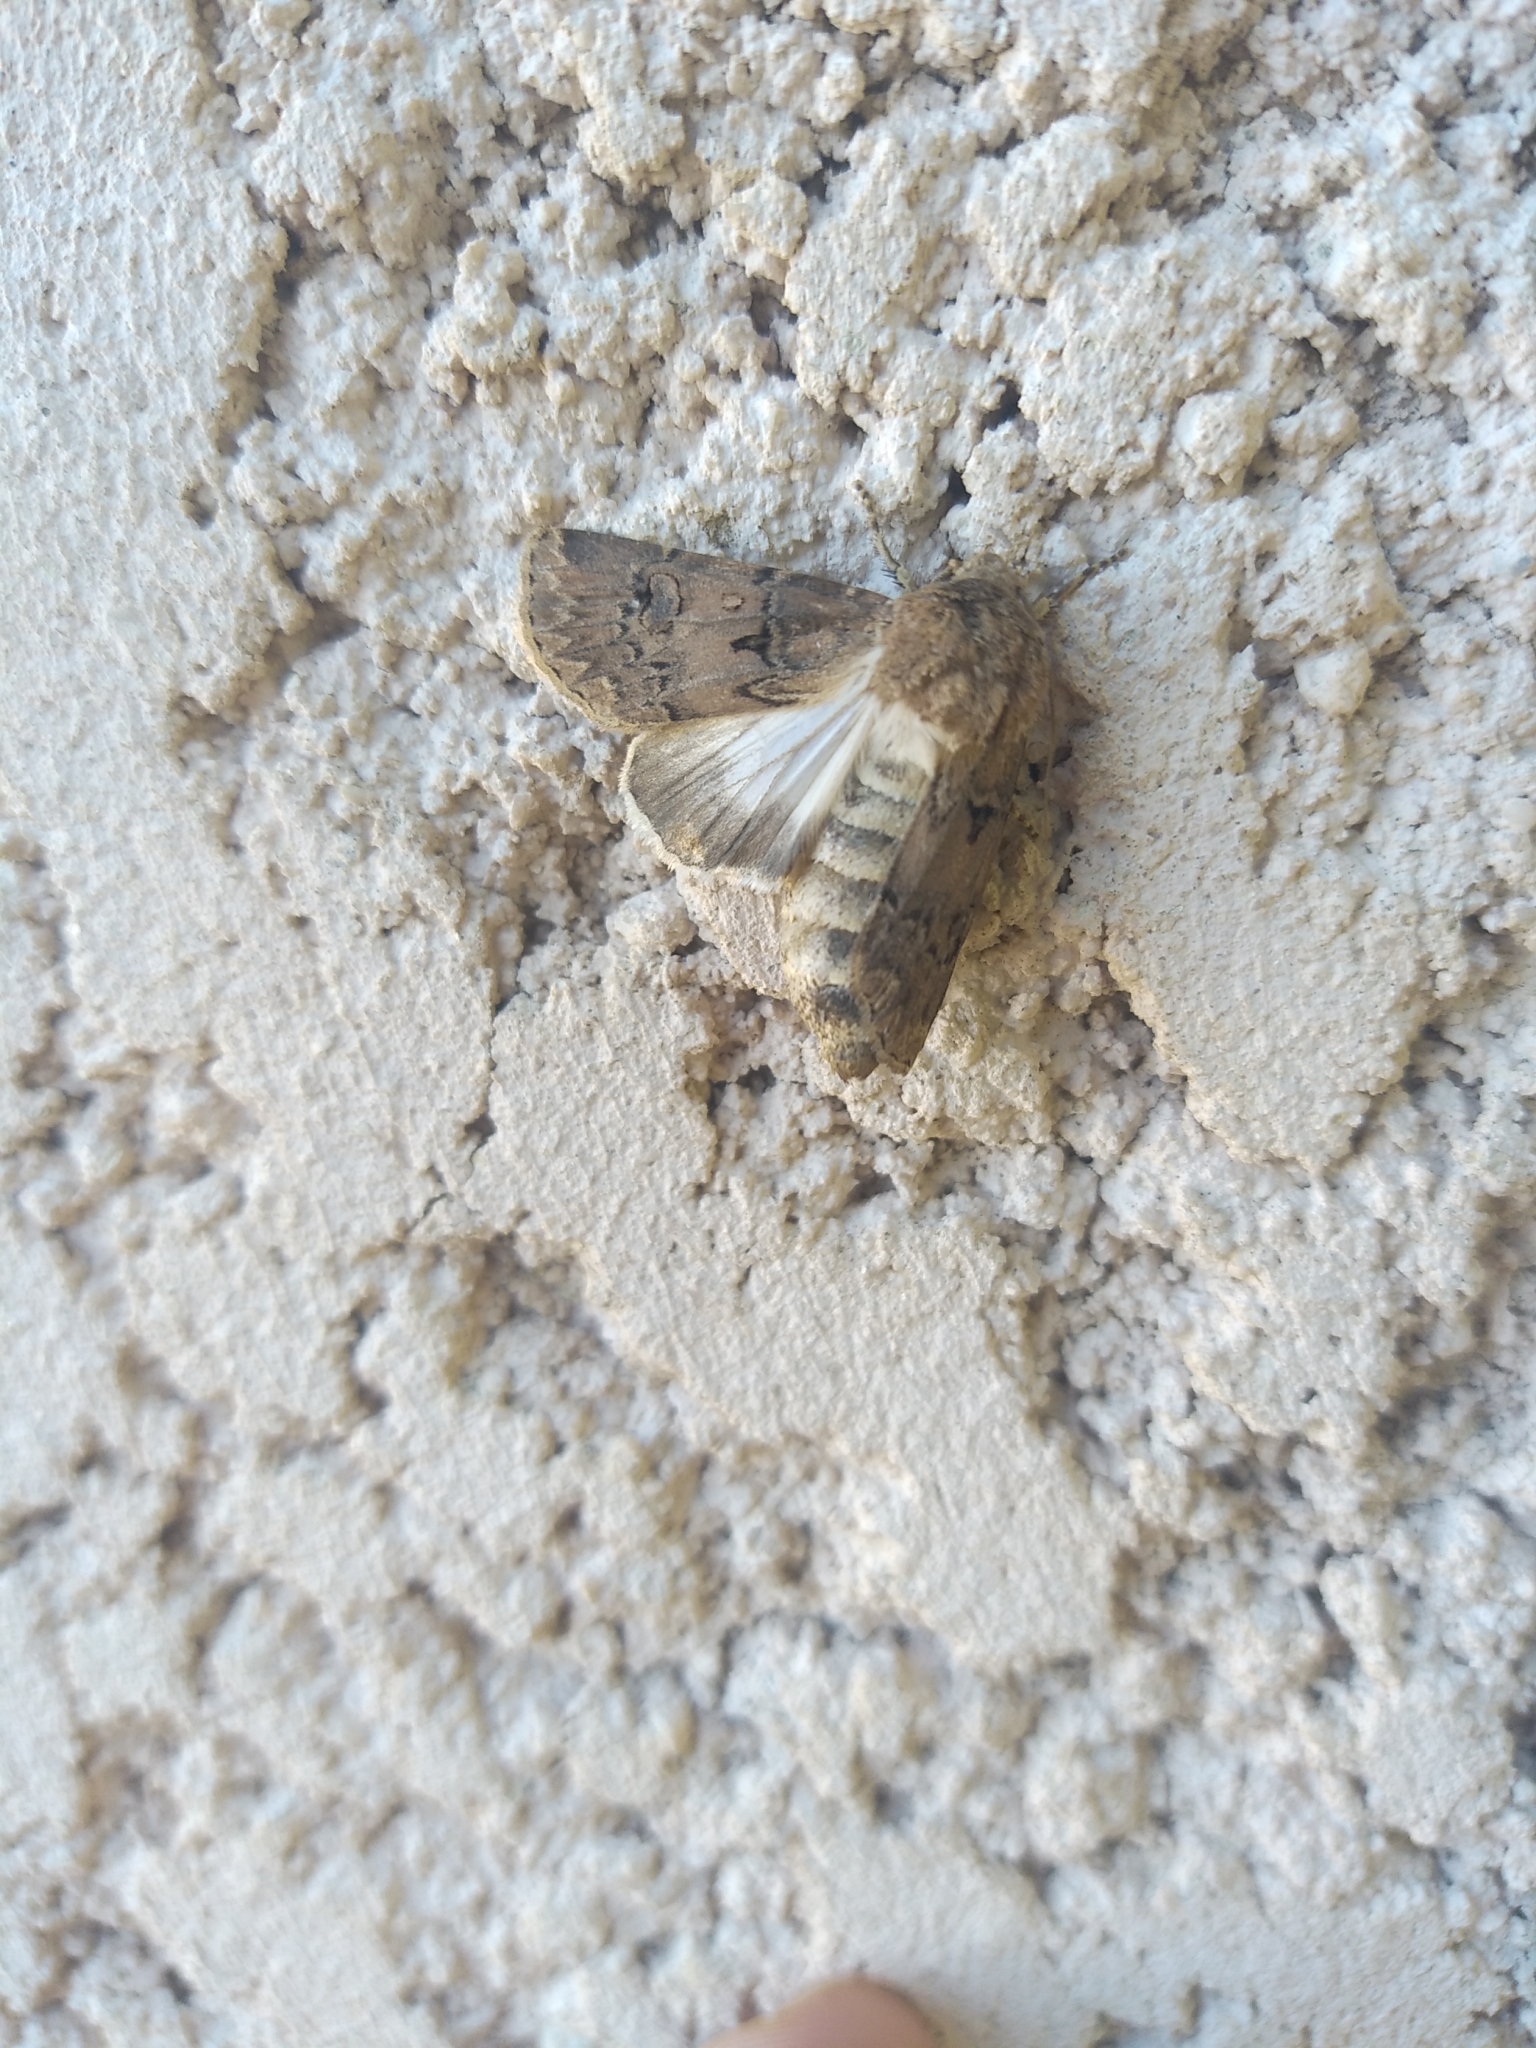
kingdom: Animalia
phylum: Arthropoda
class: Insecta
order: Lepidoptera
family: Noctuidae
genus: Agrotis
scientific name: Agrotis bigramma
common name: Great dart
